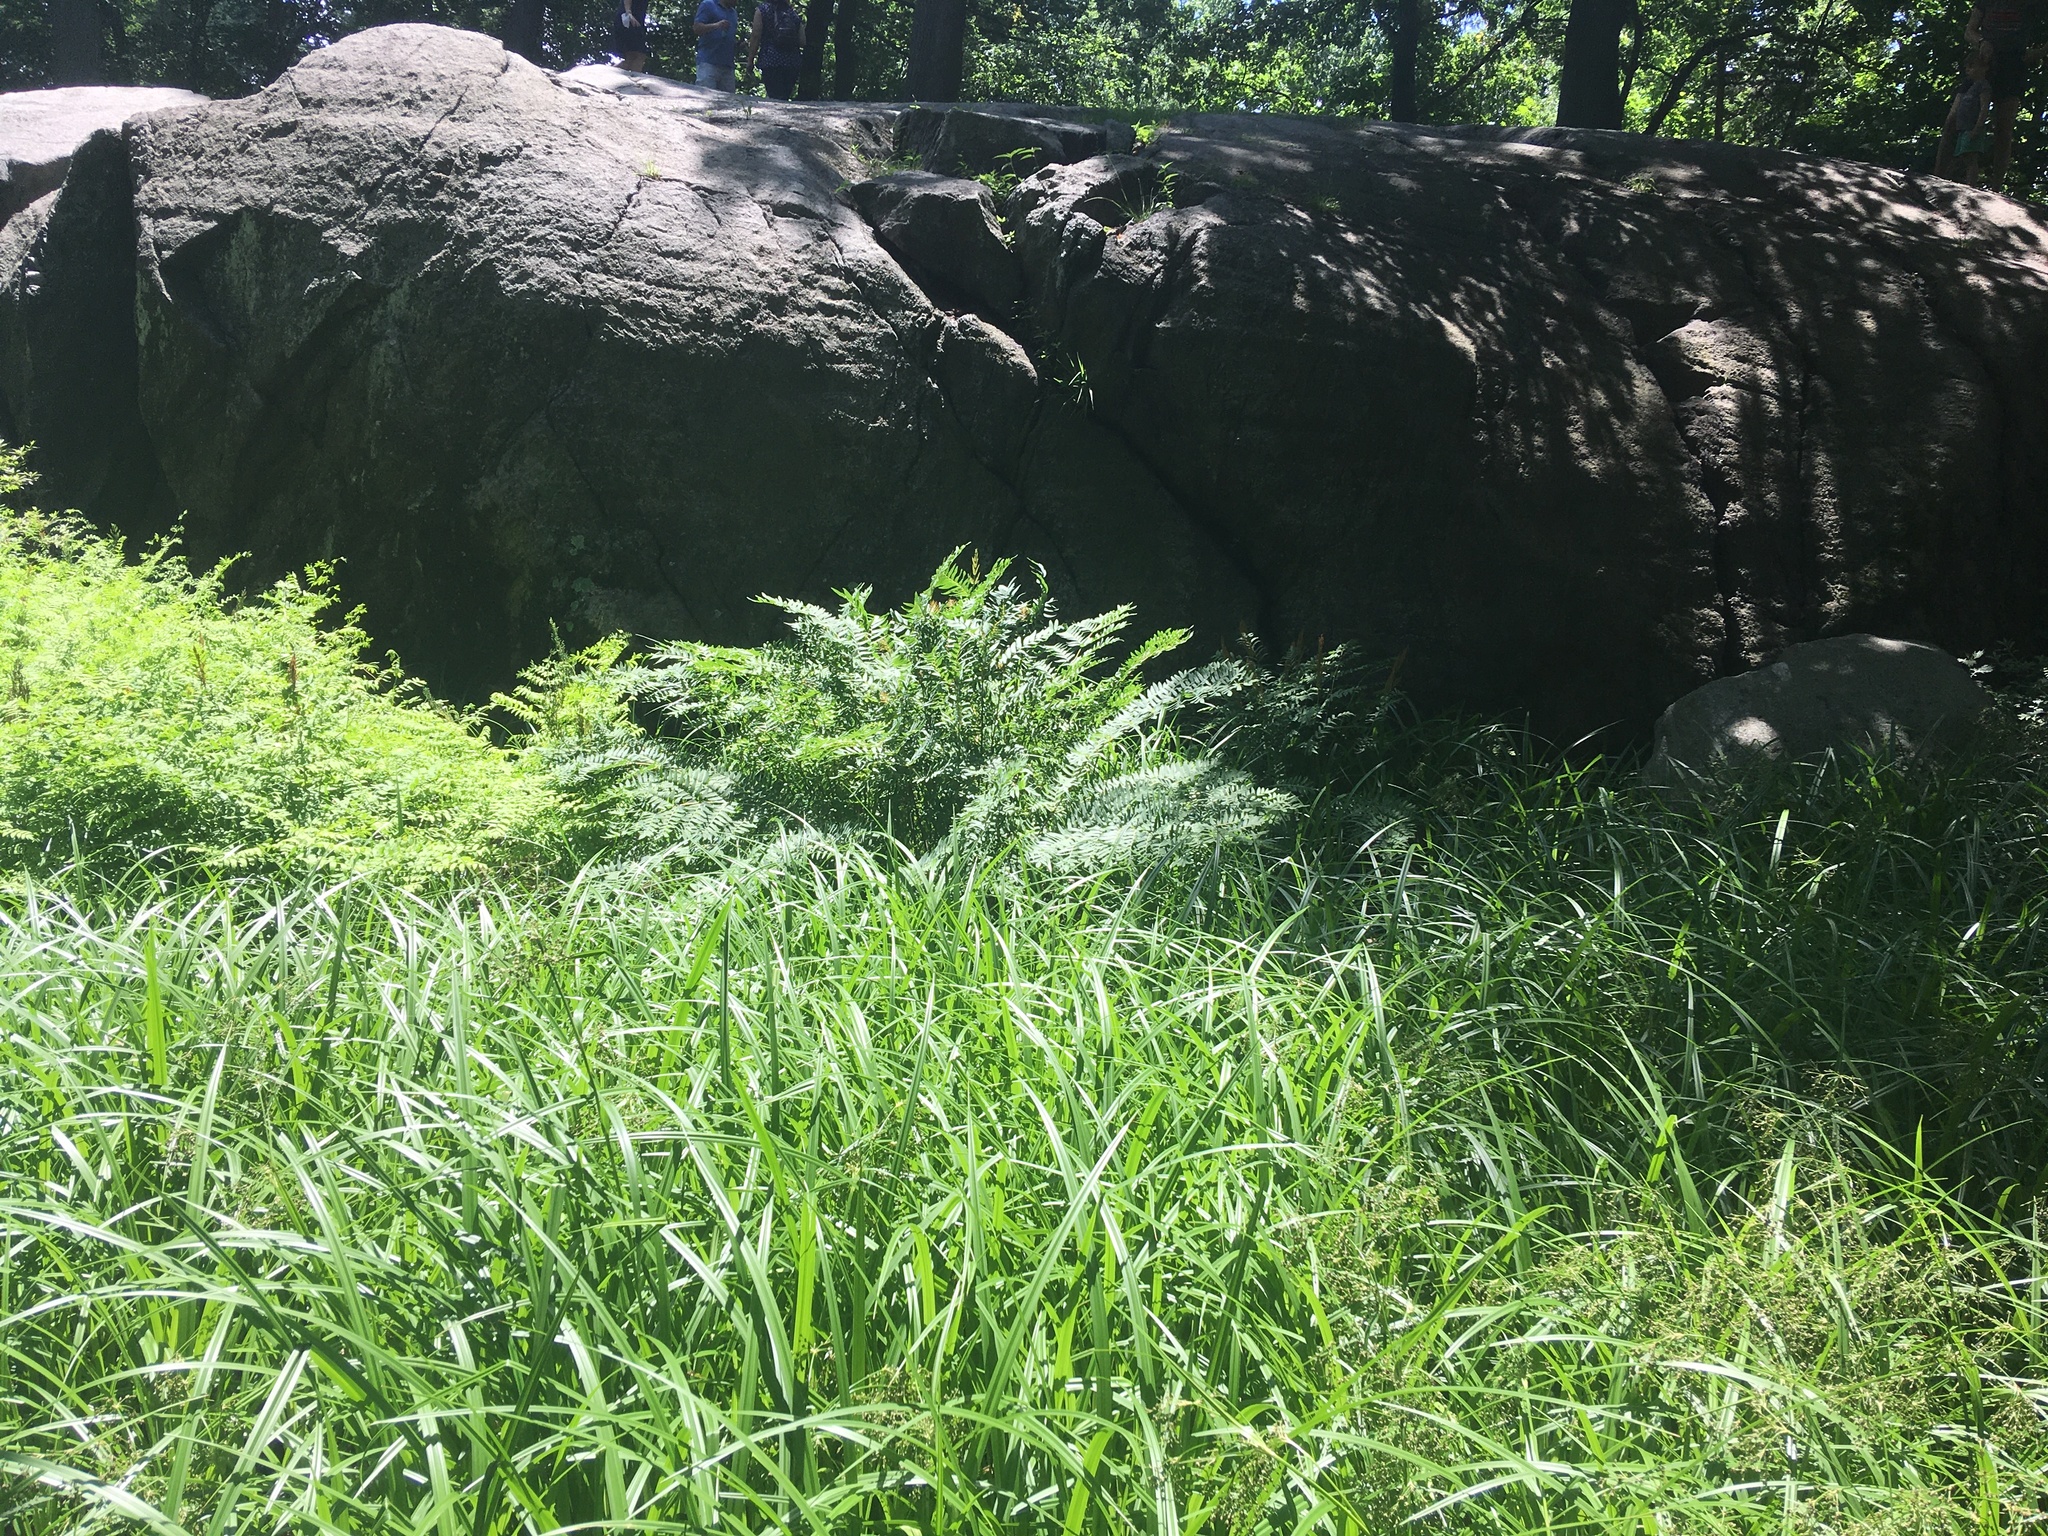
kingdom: Plantae
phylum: Tracheophyta
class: Polypodiopsida
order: Osmundales
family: Osmundaceae
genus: Osmunda
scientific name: Osmunda spectabilis
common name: American royal fern
